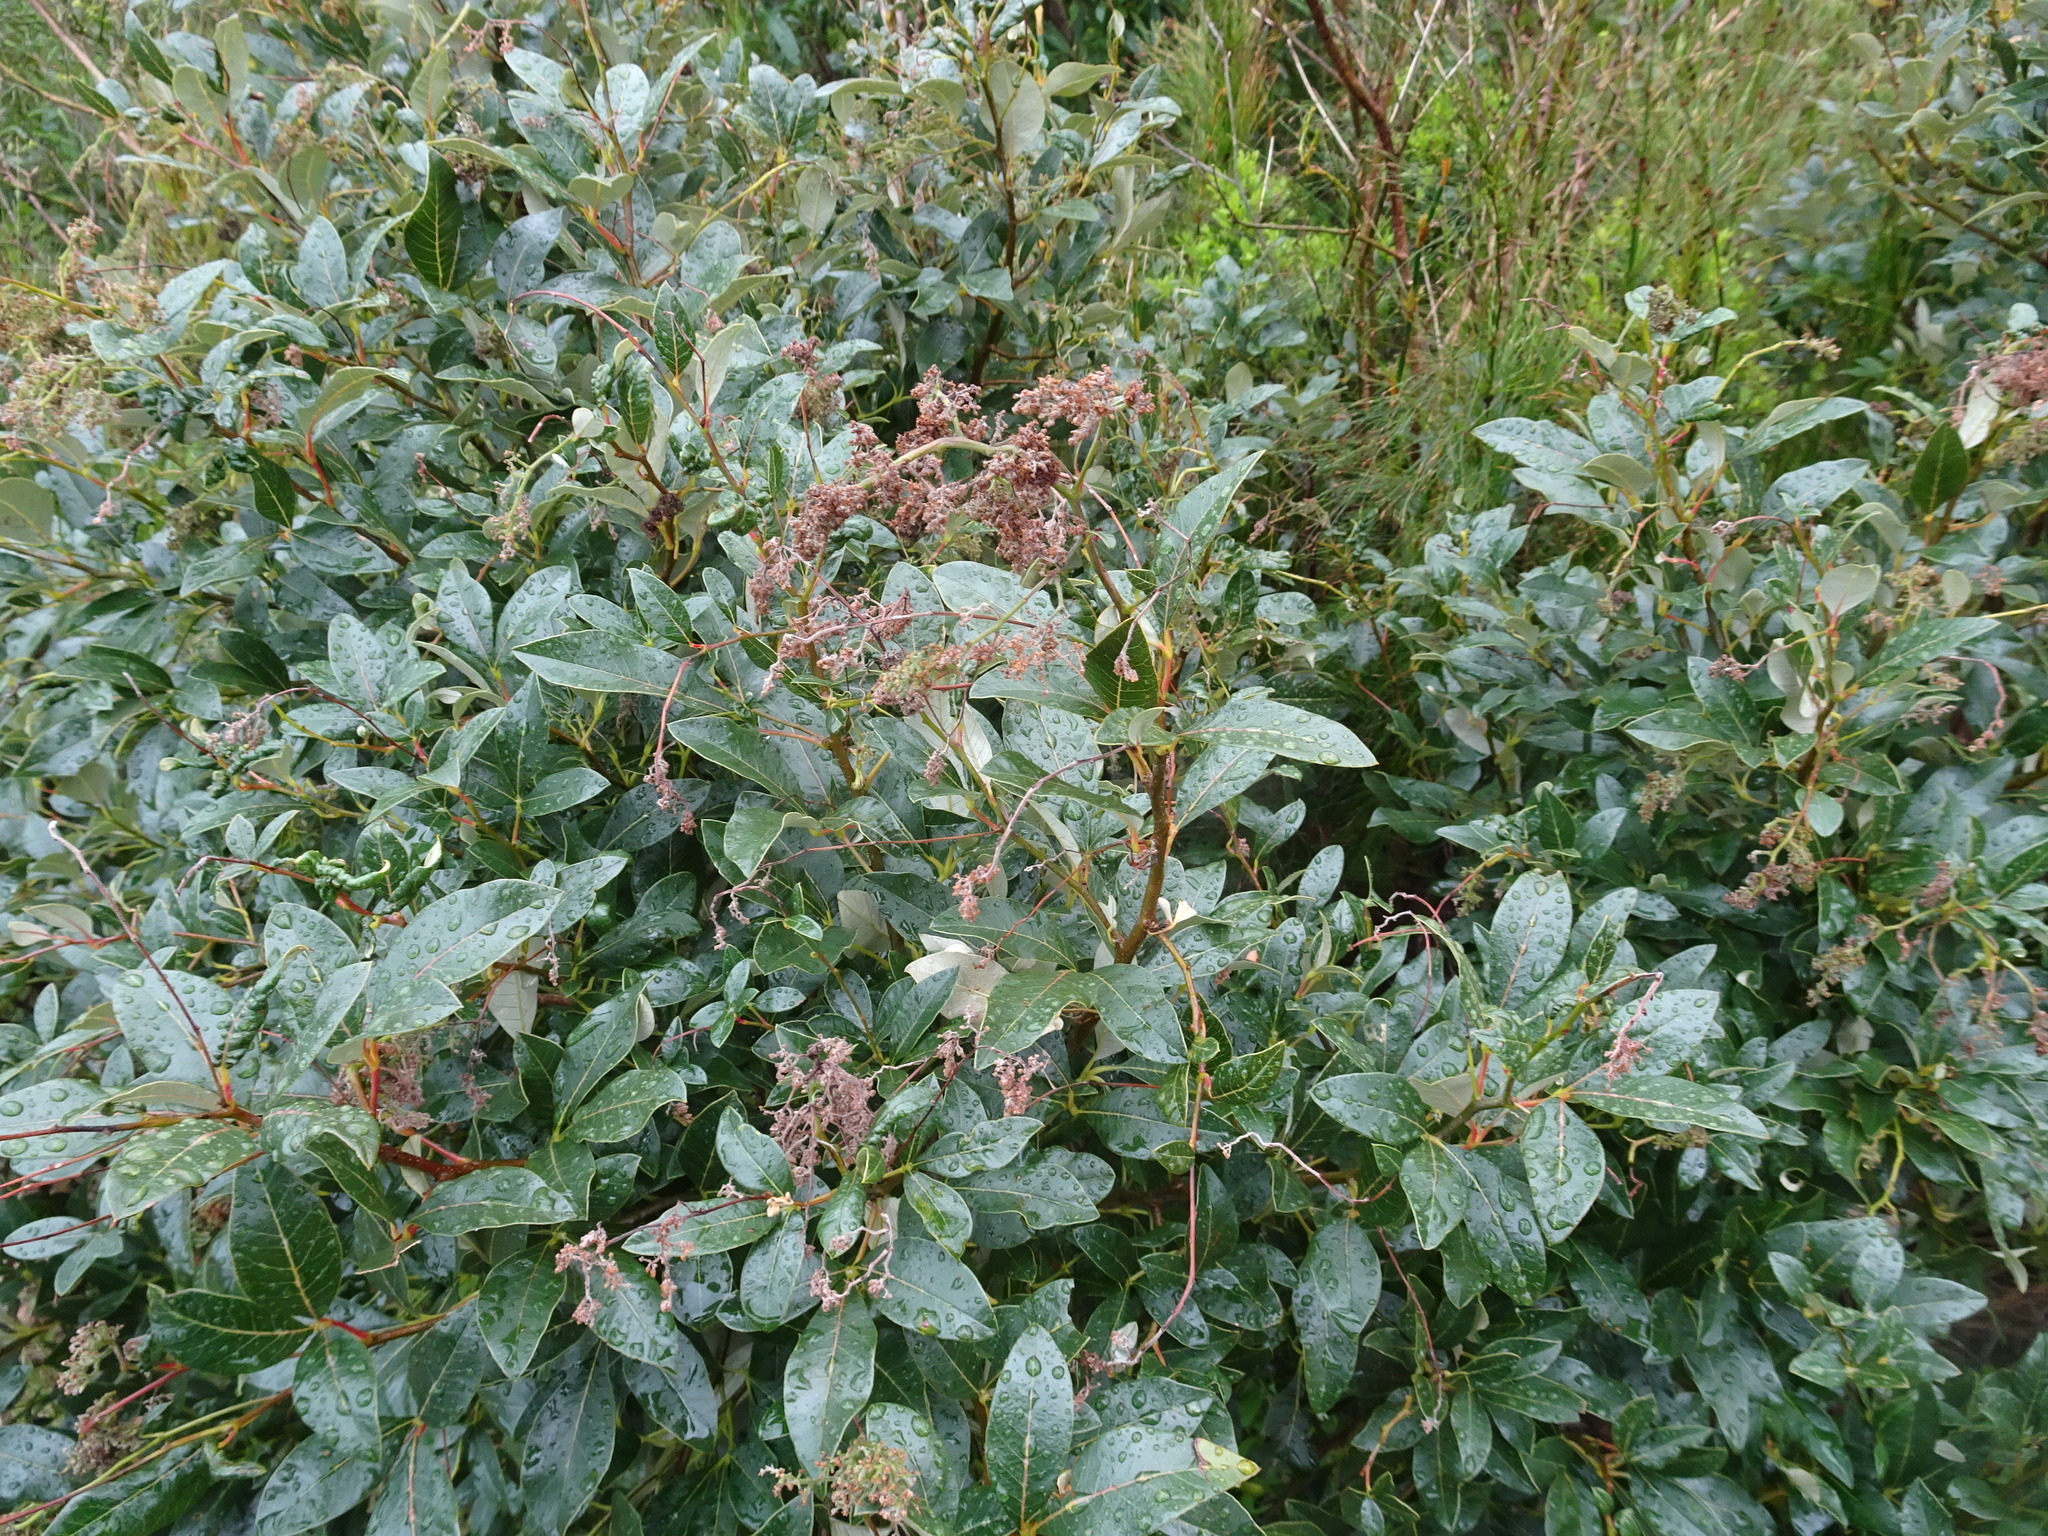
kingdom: Plantae
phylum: Tracheophyta
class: Magnoliopsida
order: Sapindales
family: Anacardiaceae
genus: Searsia
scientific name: Searsia tomentosa
